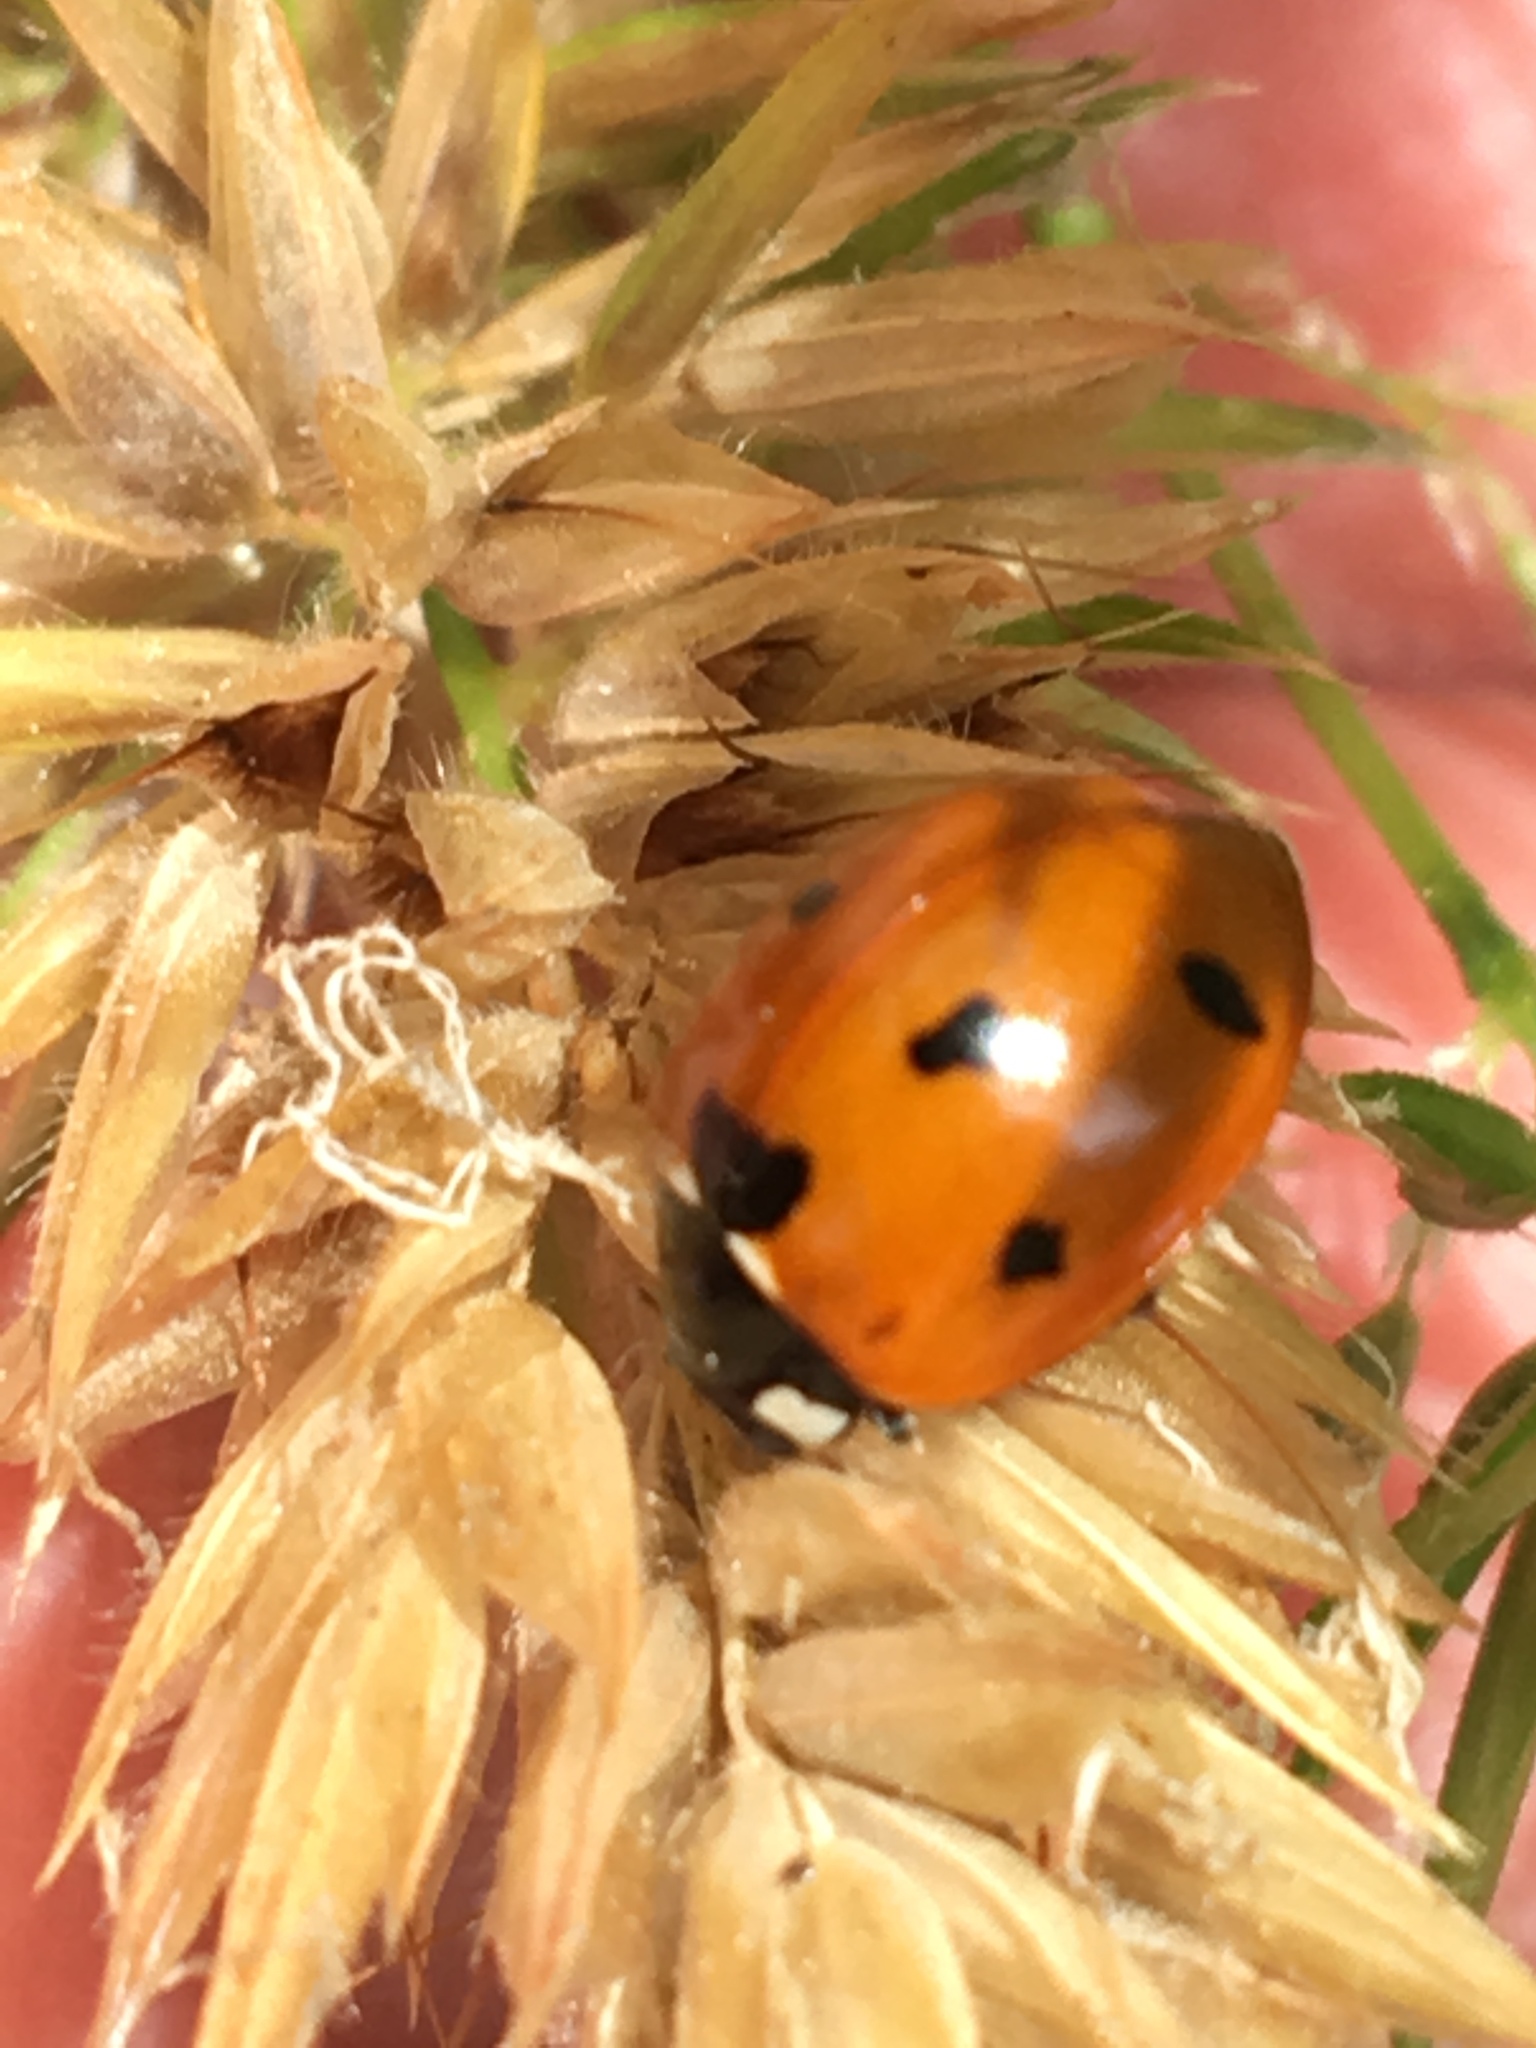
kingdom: Animalia
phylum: Arthropoda
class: Insecta
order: Coleoptera
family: Coccinellidae
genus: Coccinella
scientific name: Coccinella septempunctata
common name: Sevenspotted lady beetle
